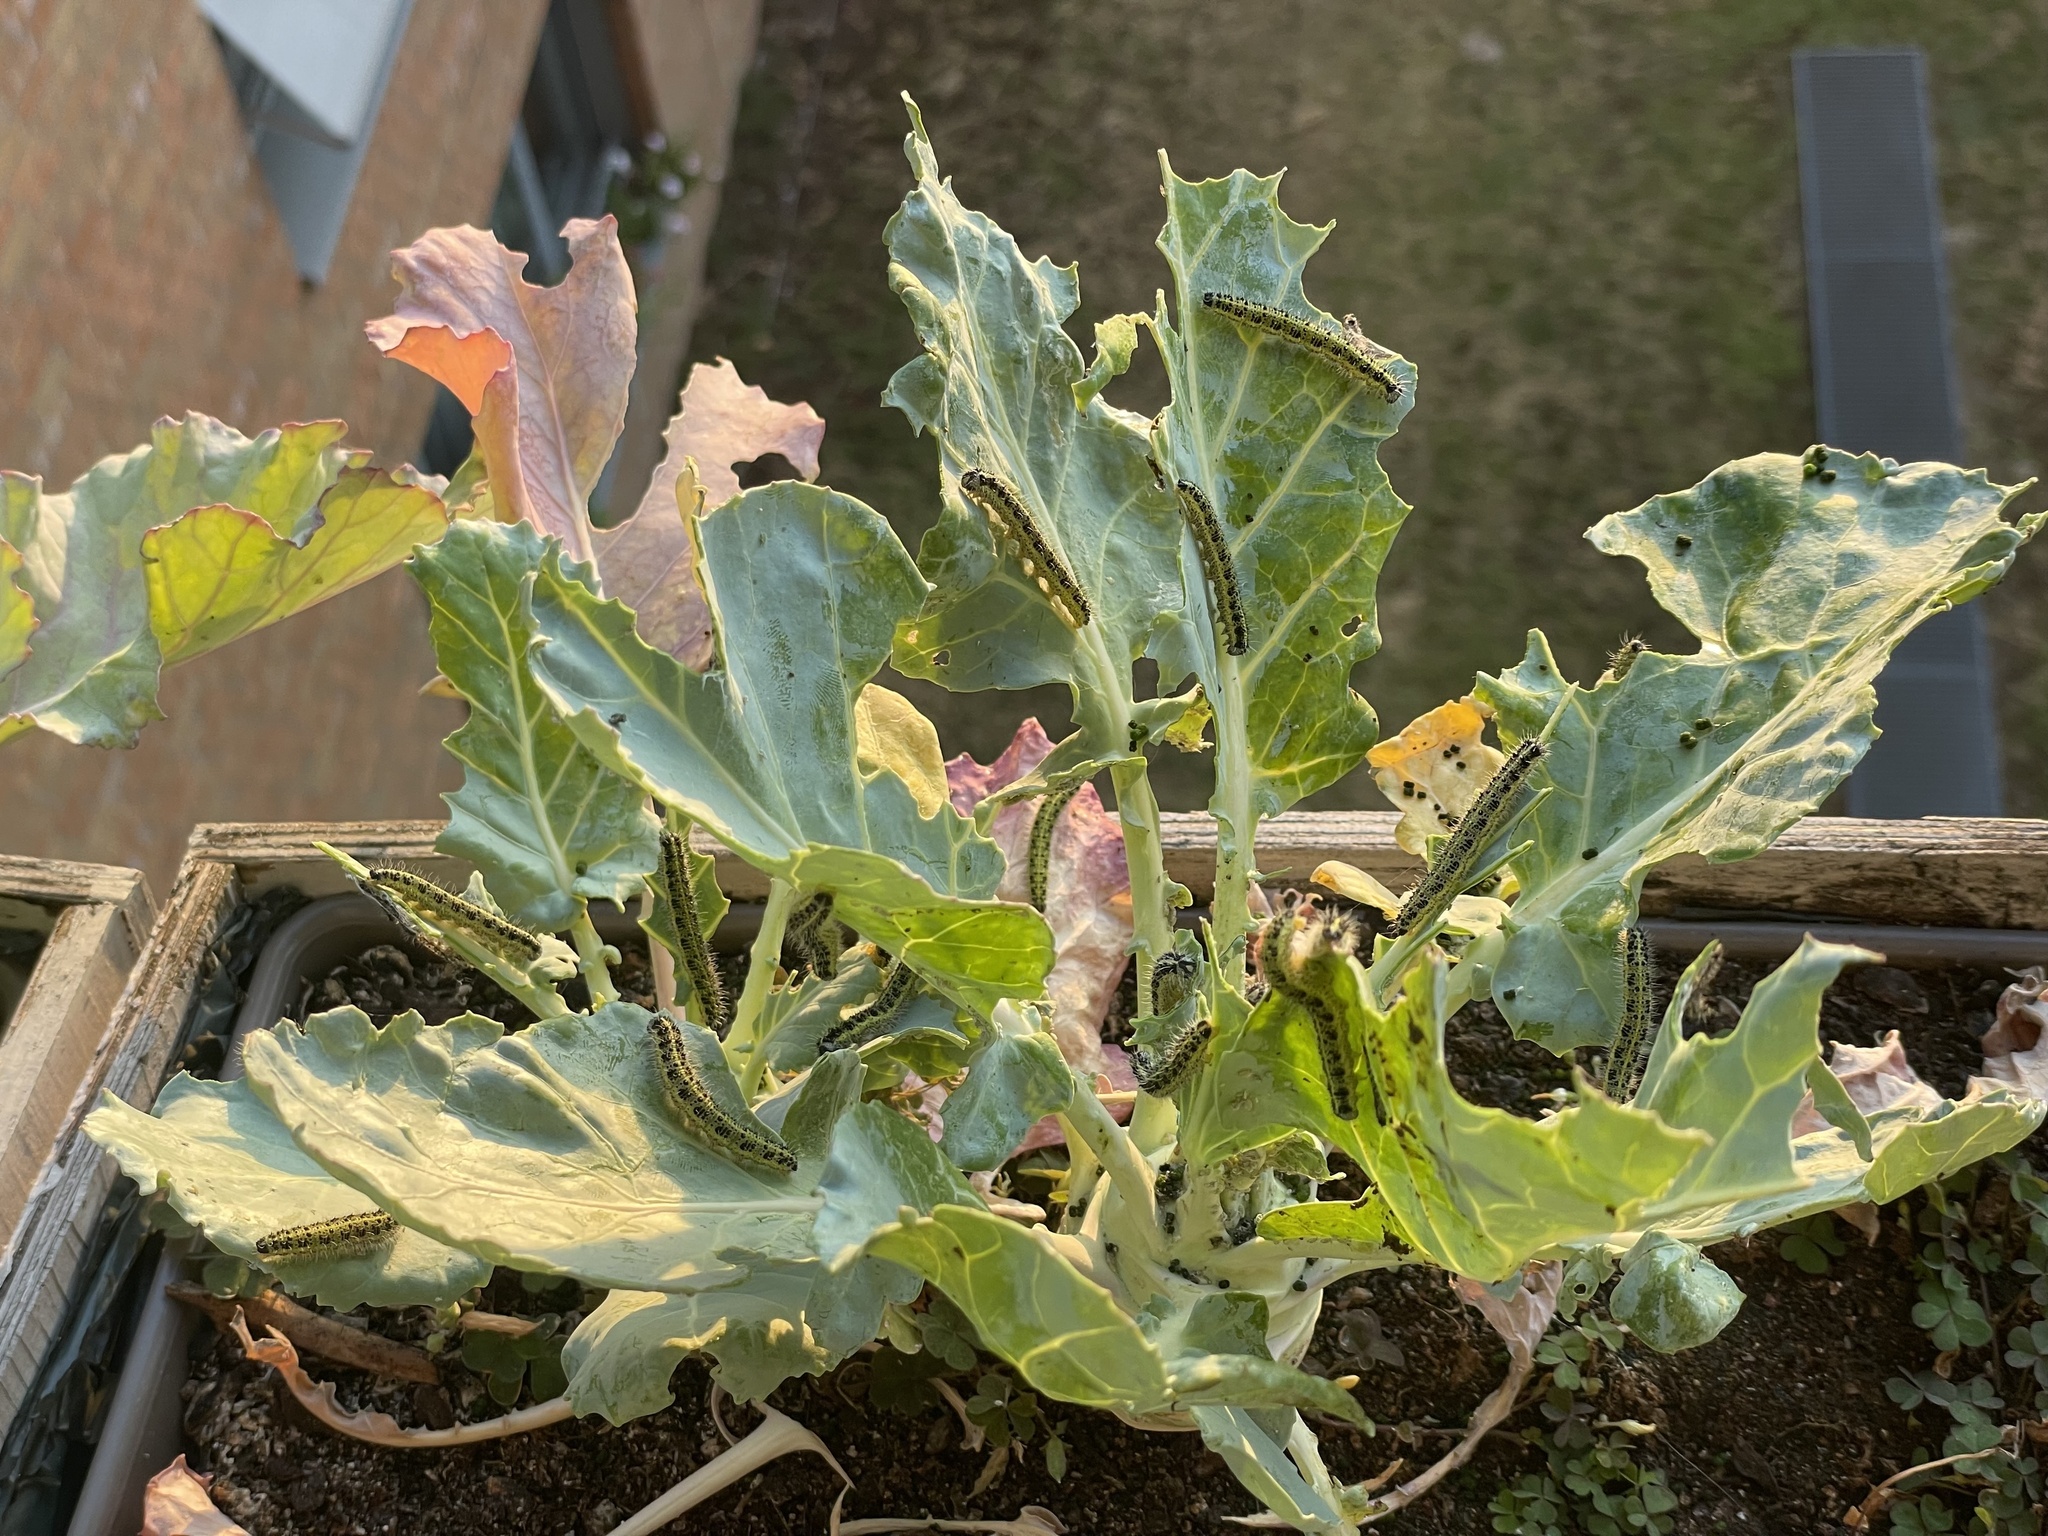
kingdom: Animalia
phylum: Arthropoda
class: Insecta
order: Lepidoptera
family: Pieridae
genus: Pieris
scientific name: Pieris brassicae
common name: Large white
